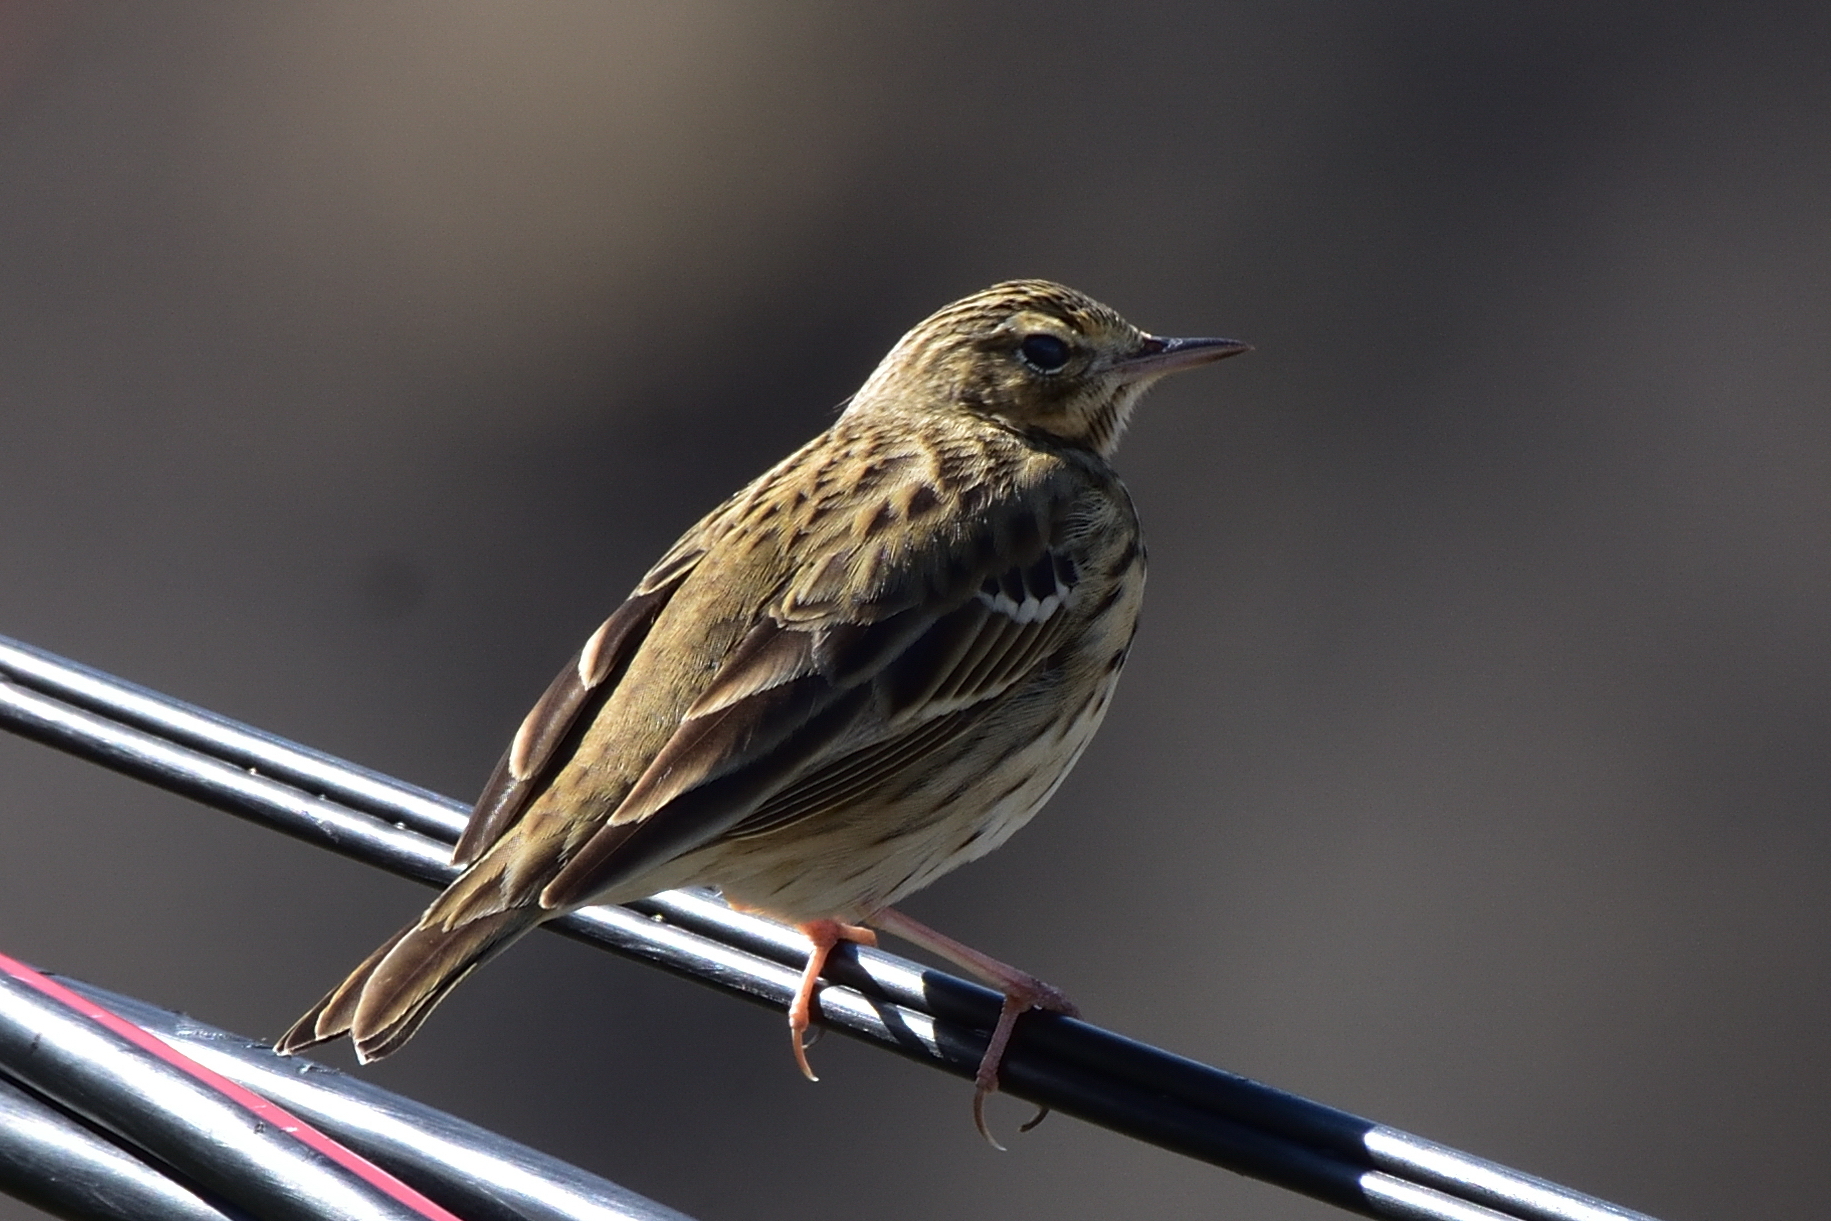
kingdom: Animalia
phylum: Chordata
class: Aves
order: Passeriformes
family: Motacillidae
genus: Anthus
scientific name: Anthus trivialis
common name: Tree pipit
